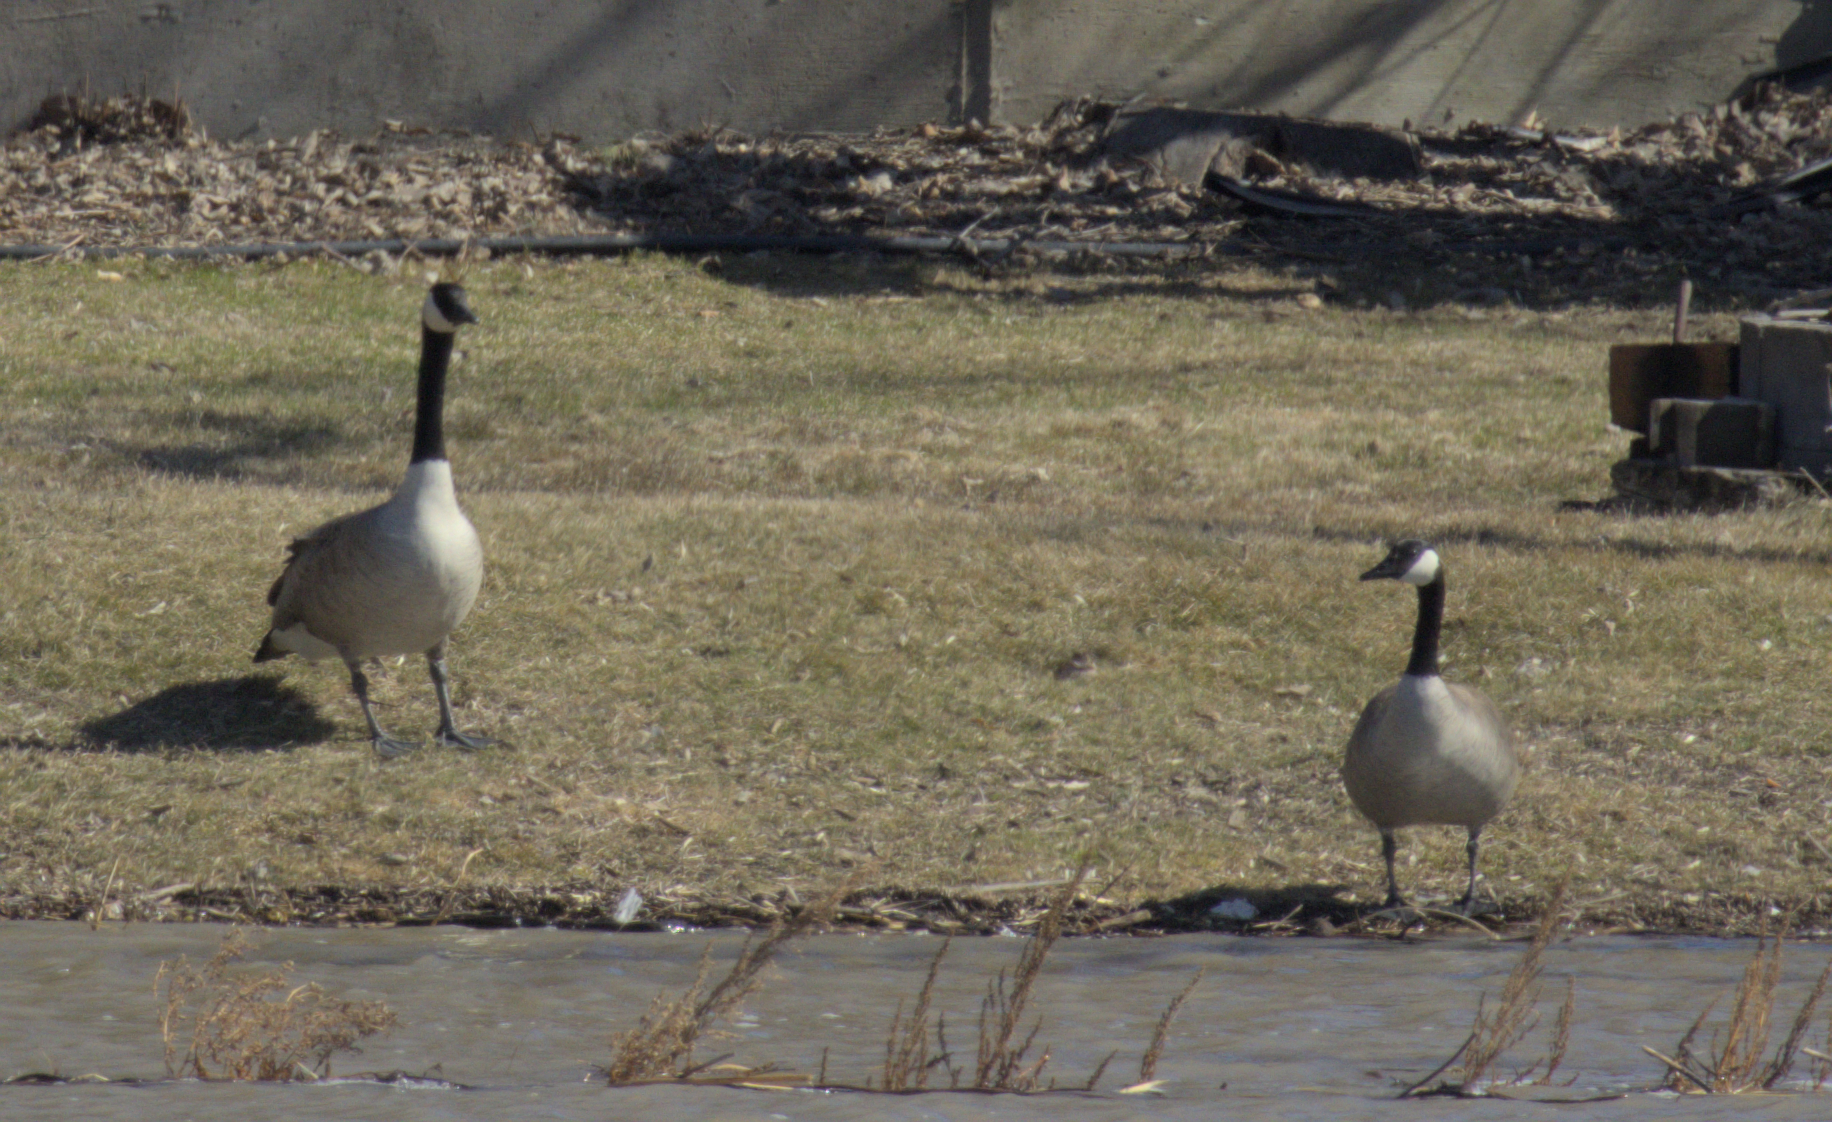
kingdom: Animalia
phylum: Chordata
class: Aves
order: Anseriformes
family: Anatidae
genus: Branta
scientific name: Branta canadensis
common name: Canada goose
